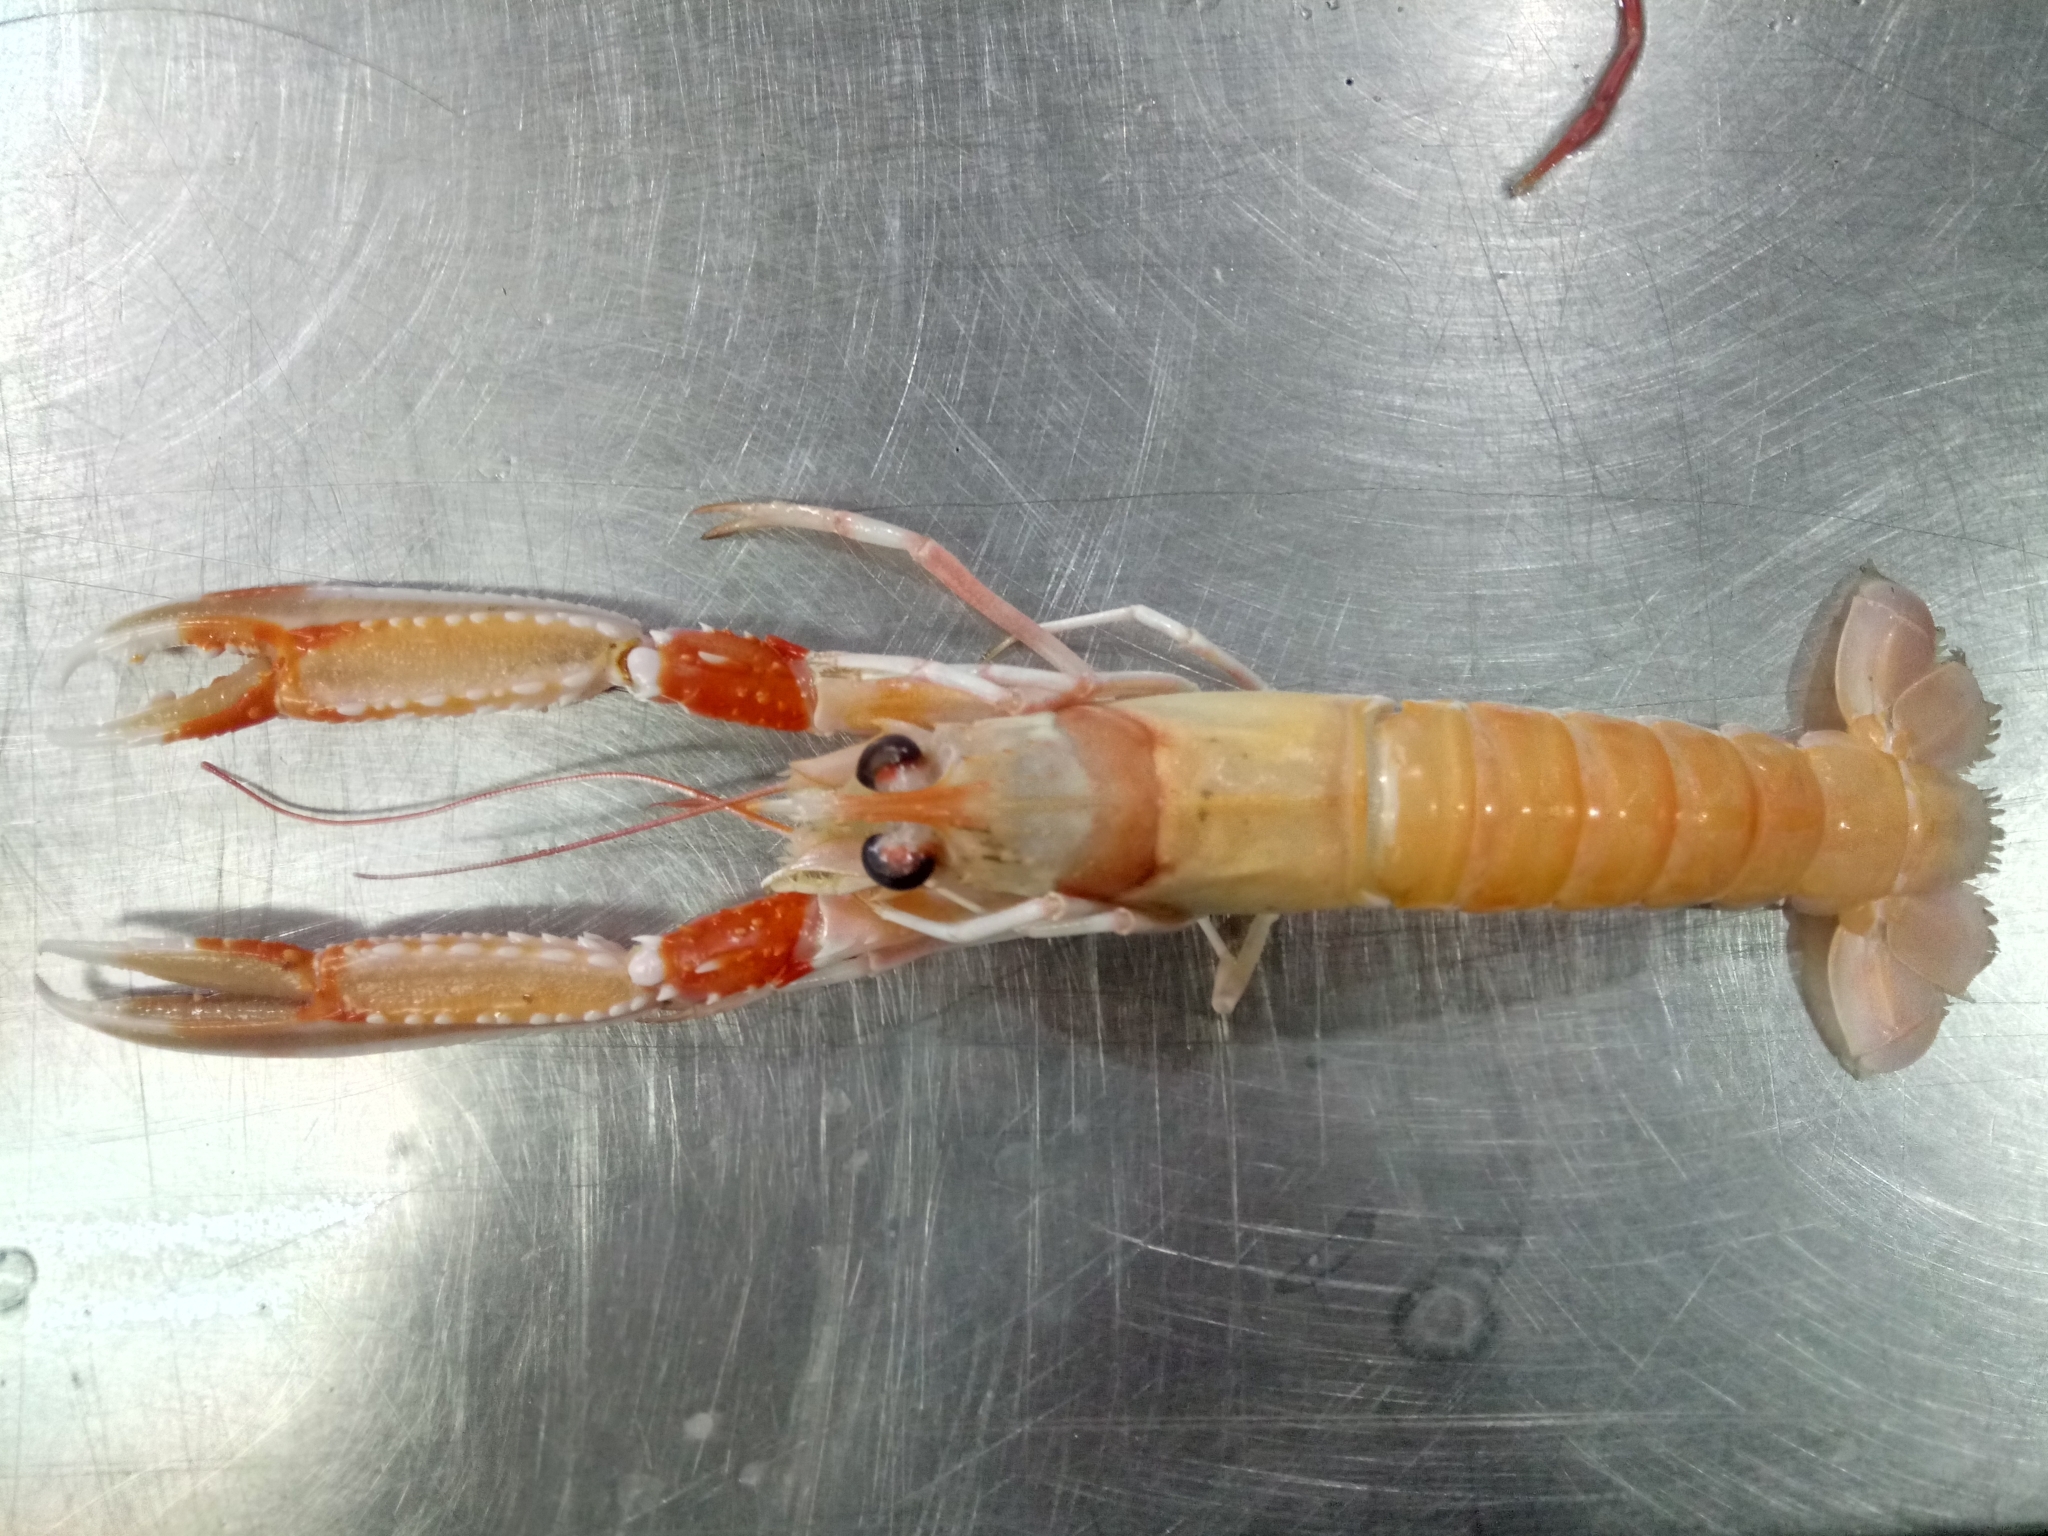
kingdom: Animalia
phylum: Arthropoda
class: Malacostraca
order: Decapoda
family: Nephropidae
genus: Nephrops
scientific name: Nephrops norvegicus
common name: Norway lobster
